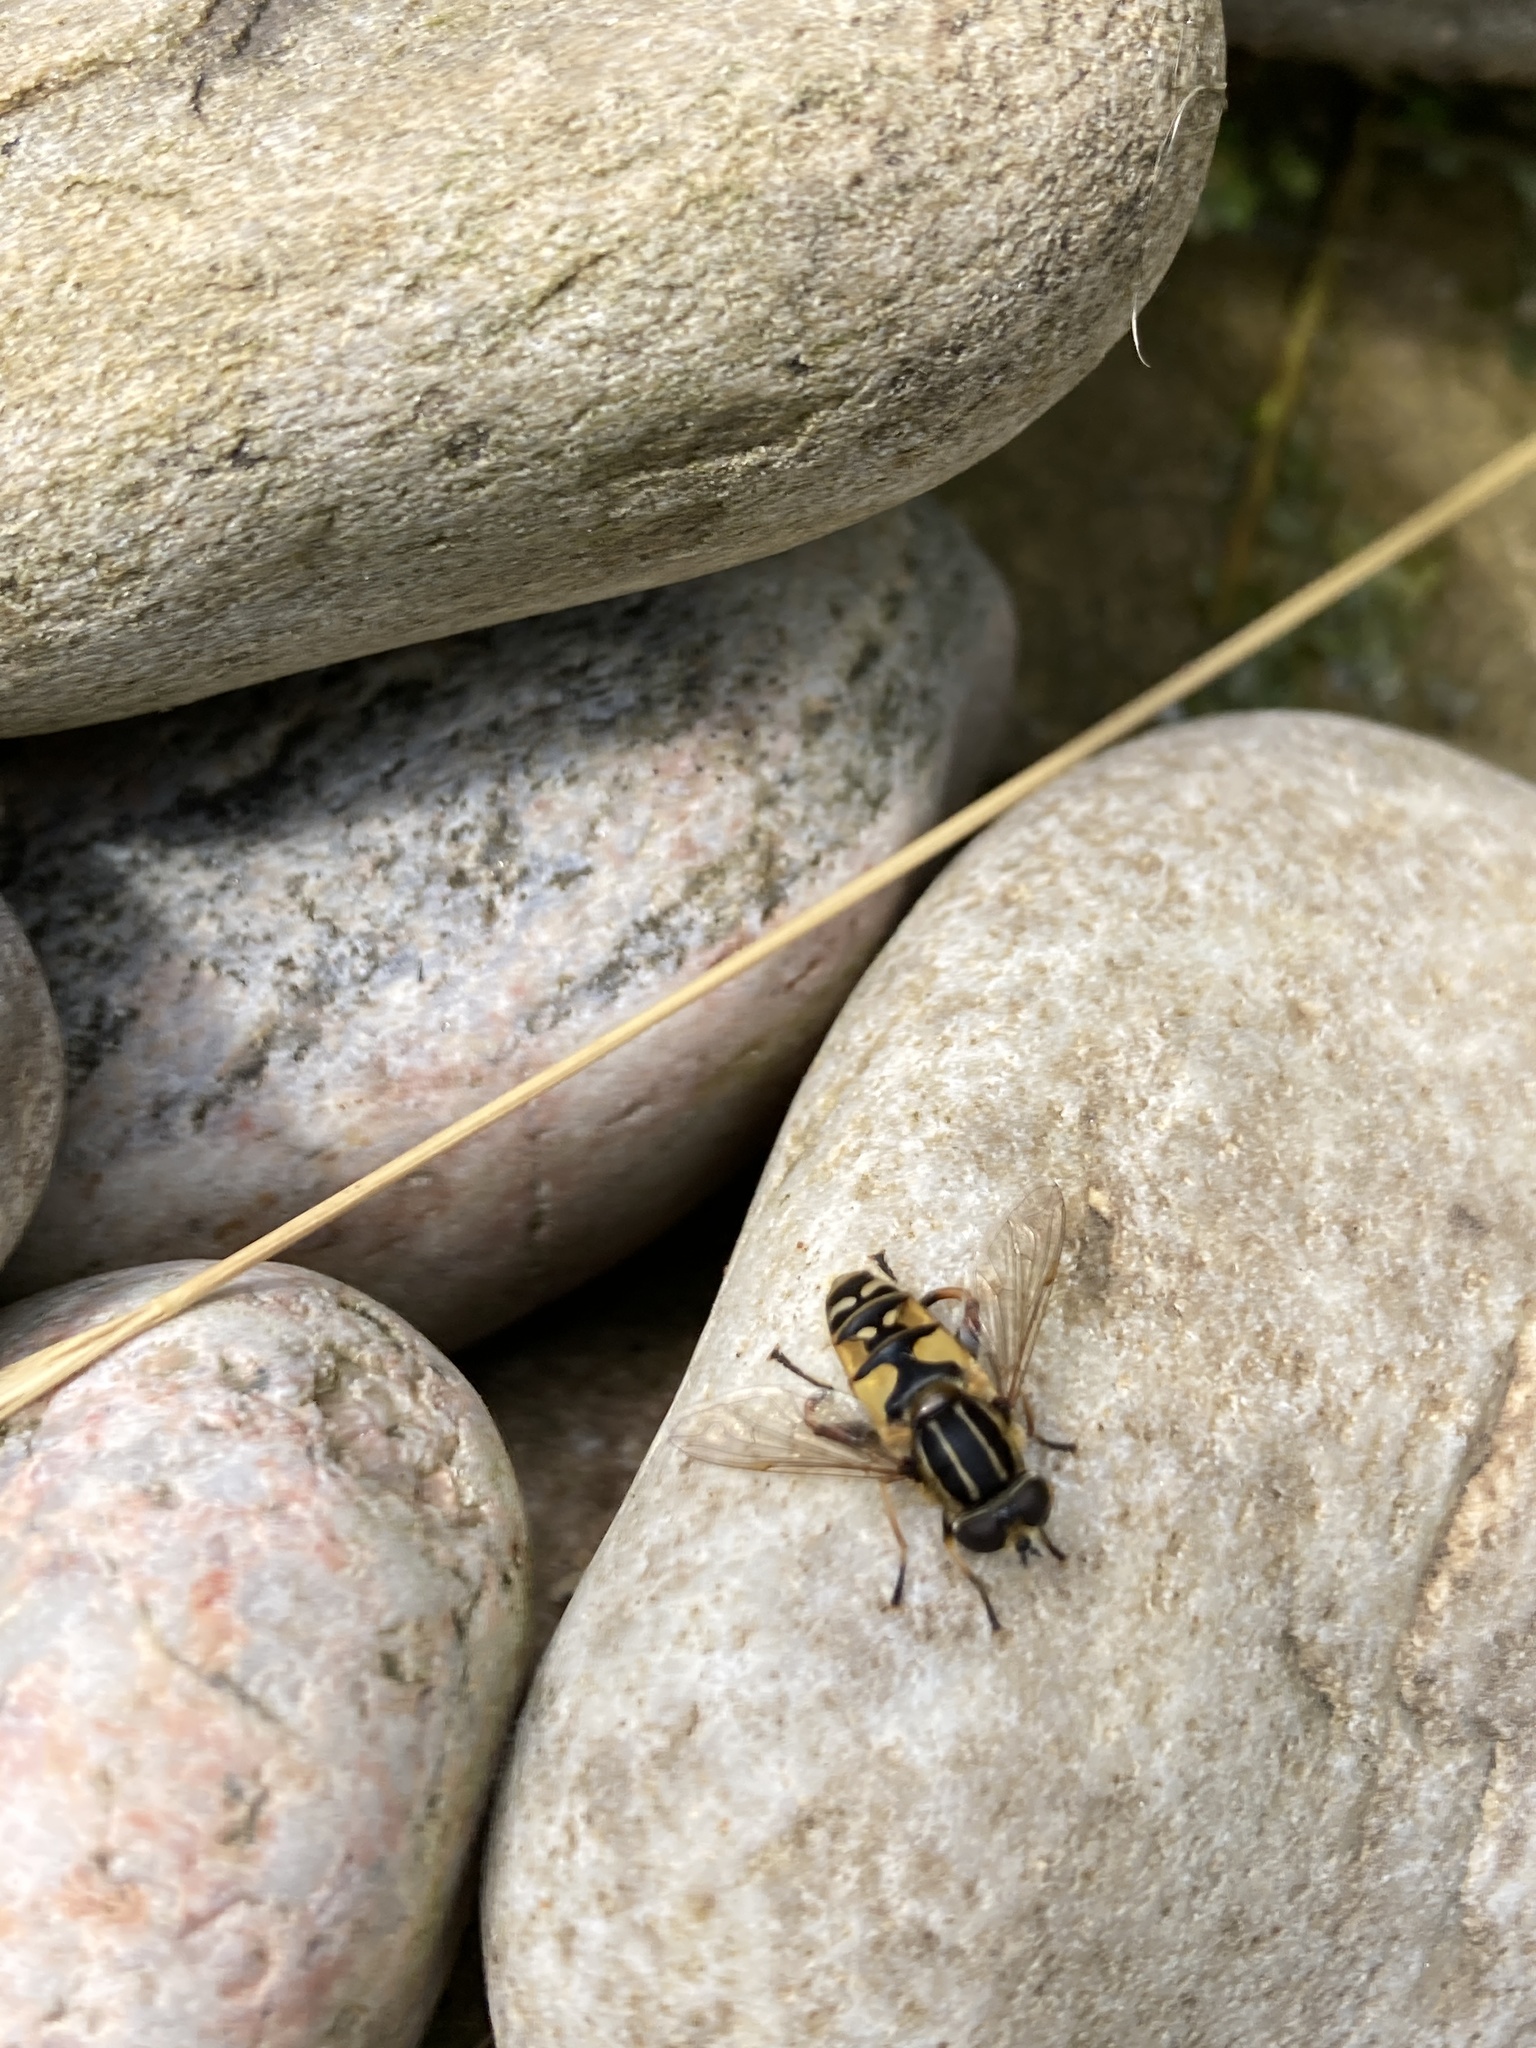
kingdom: Animalia
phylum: Arthropoda
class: Insecta
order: Diptera
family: Syrphidae
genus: Helophilus
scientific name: Helophilus pendulus
